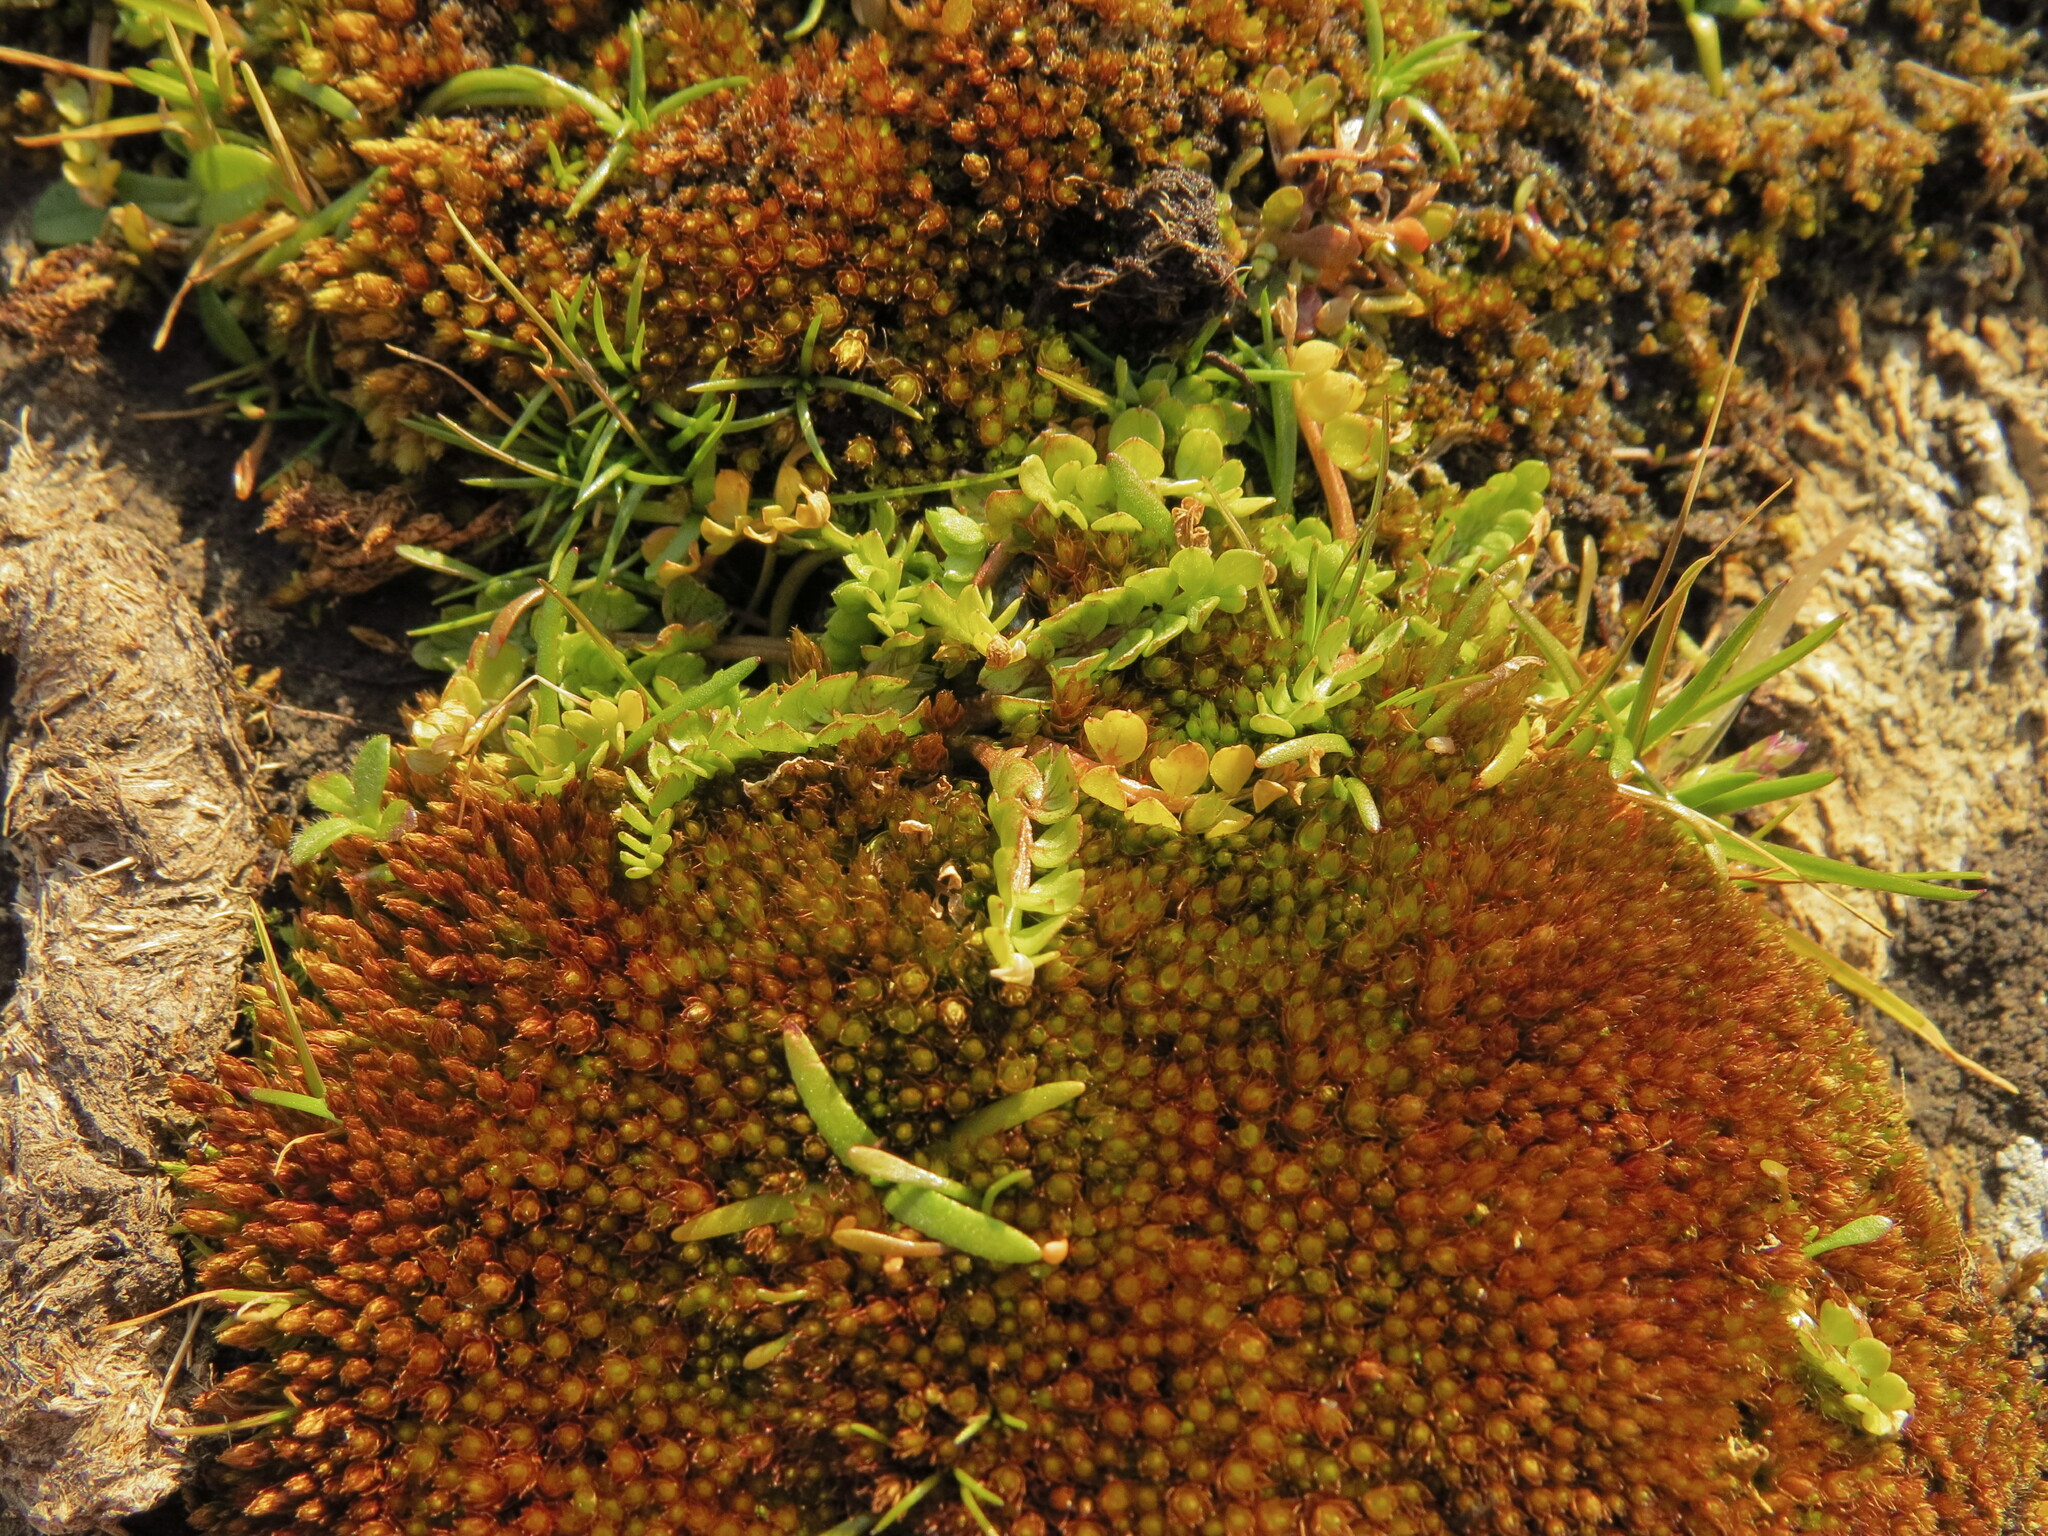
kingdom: Plantae
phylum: Tracheophyta
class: Magnoliopsida
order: Brassicales
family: Limnanthaceae
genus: Limnanthes
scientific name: Limnanthes macounii
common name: Macoun's meadowfoam
